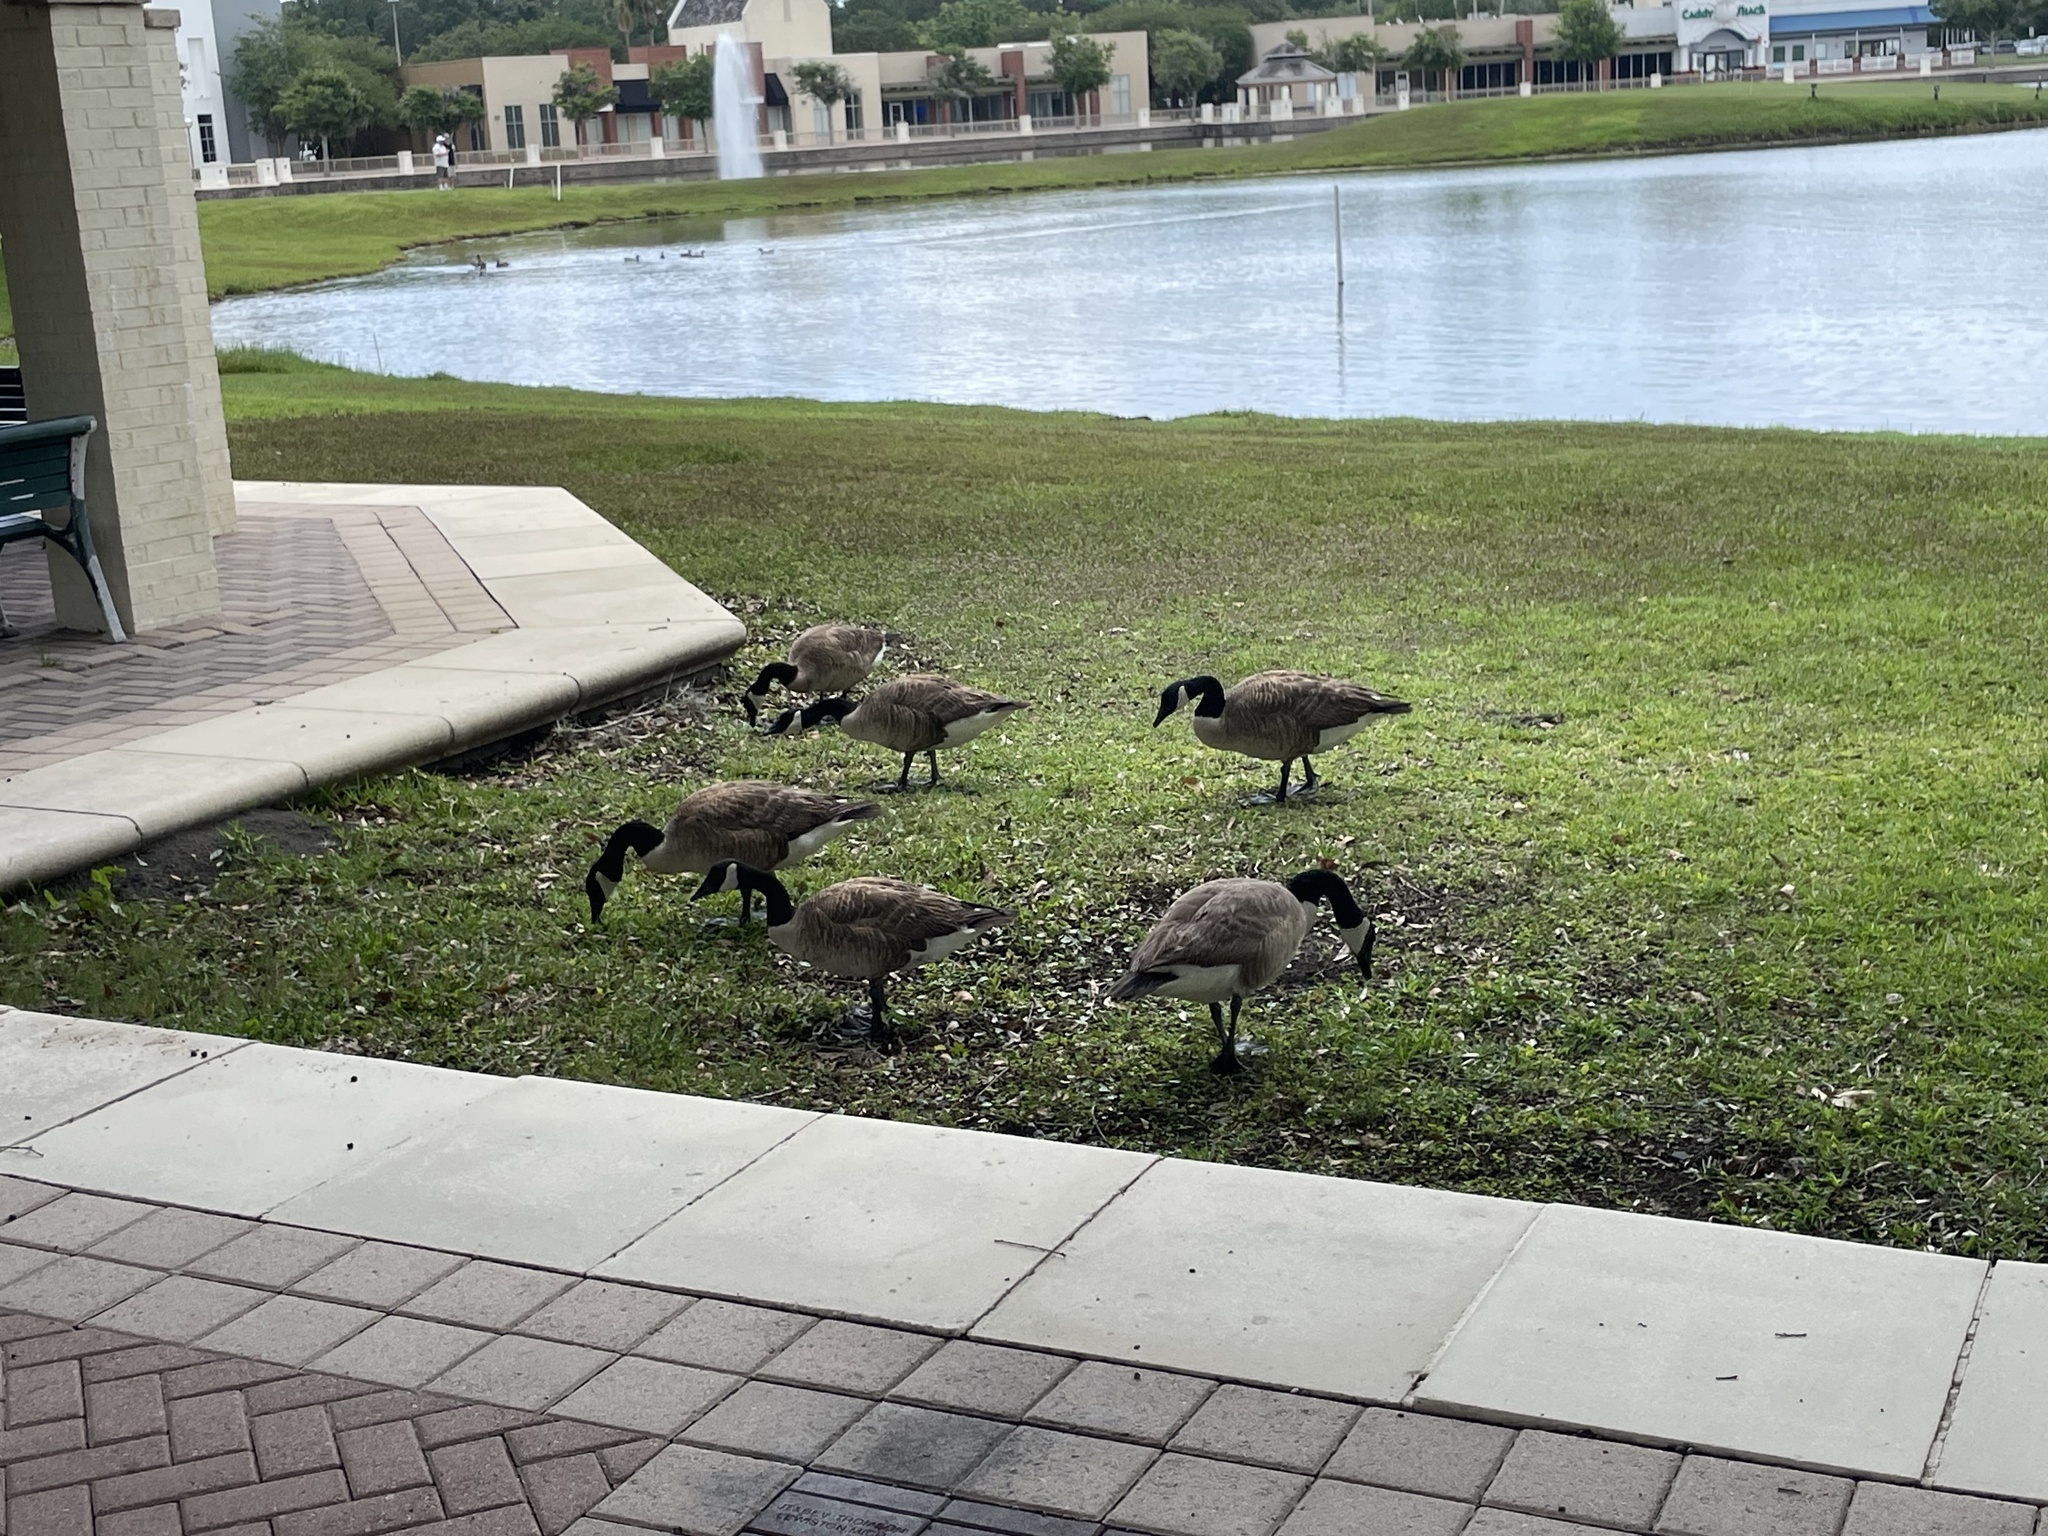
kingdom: Animalia
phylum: Chordata
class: Aves
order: Anseriformes
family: Anatidae
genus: Branta
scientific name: Branta canadensis
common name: Canada goose
